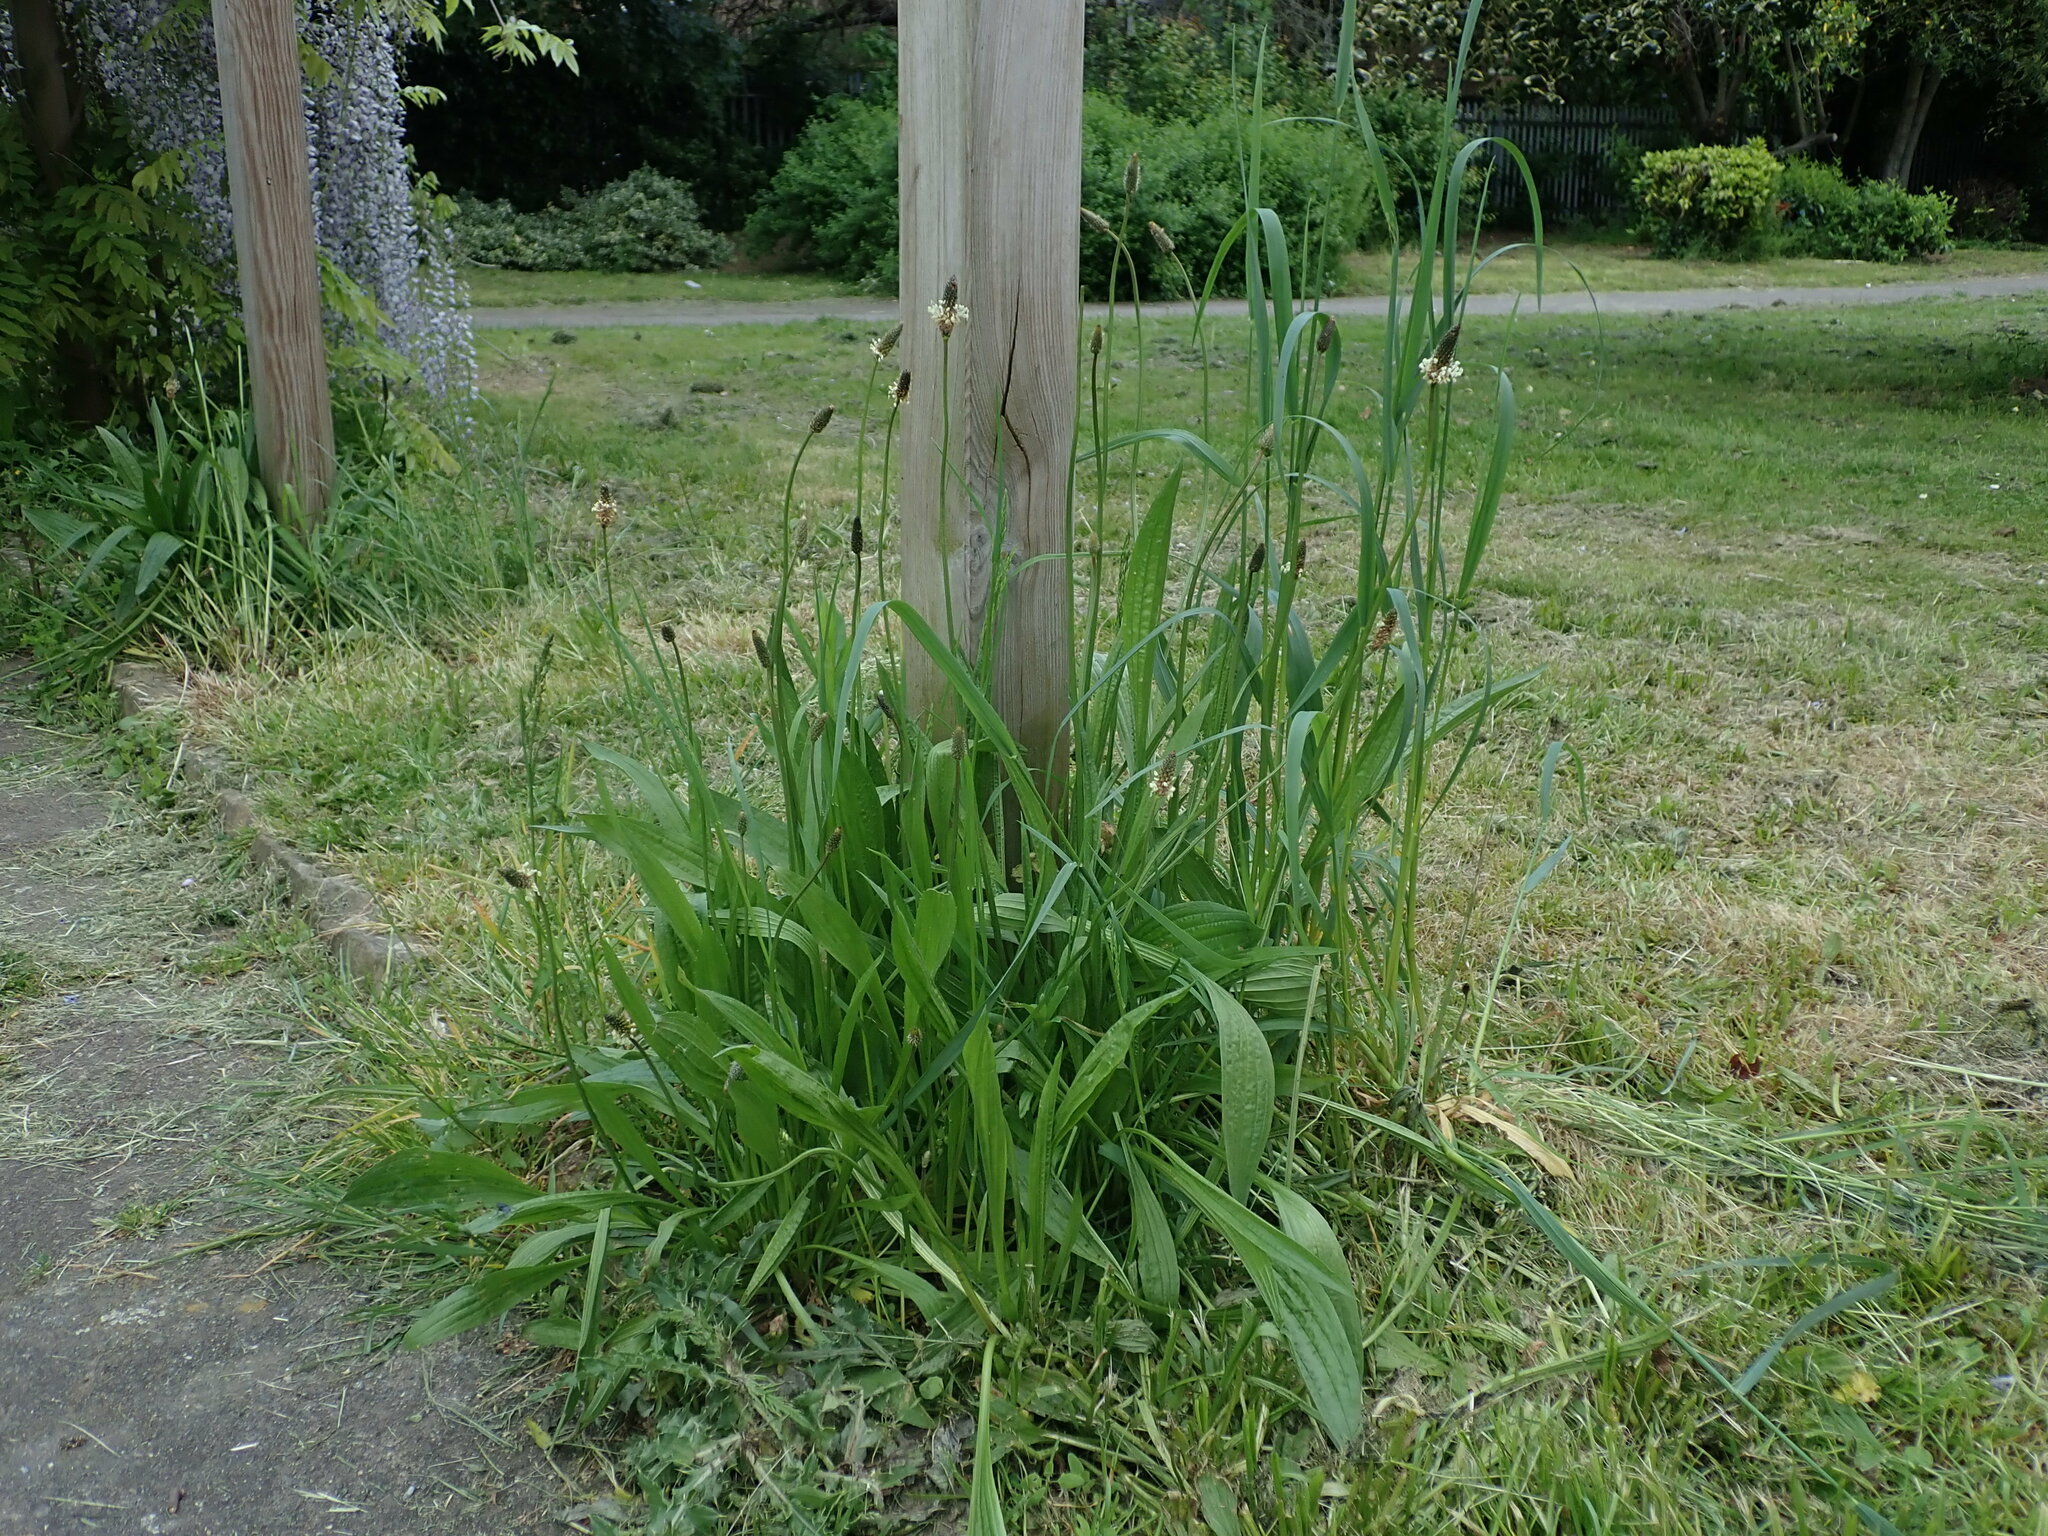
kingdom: Plantae
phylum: Tracheophyta
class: Magnoliopsida
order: Lamiales
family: Plantaginaceae
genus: Plantago
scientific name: Plantago lanceolata
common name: Ribwort plantain
